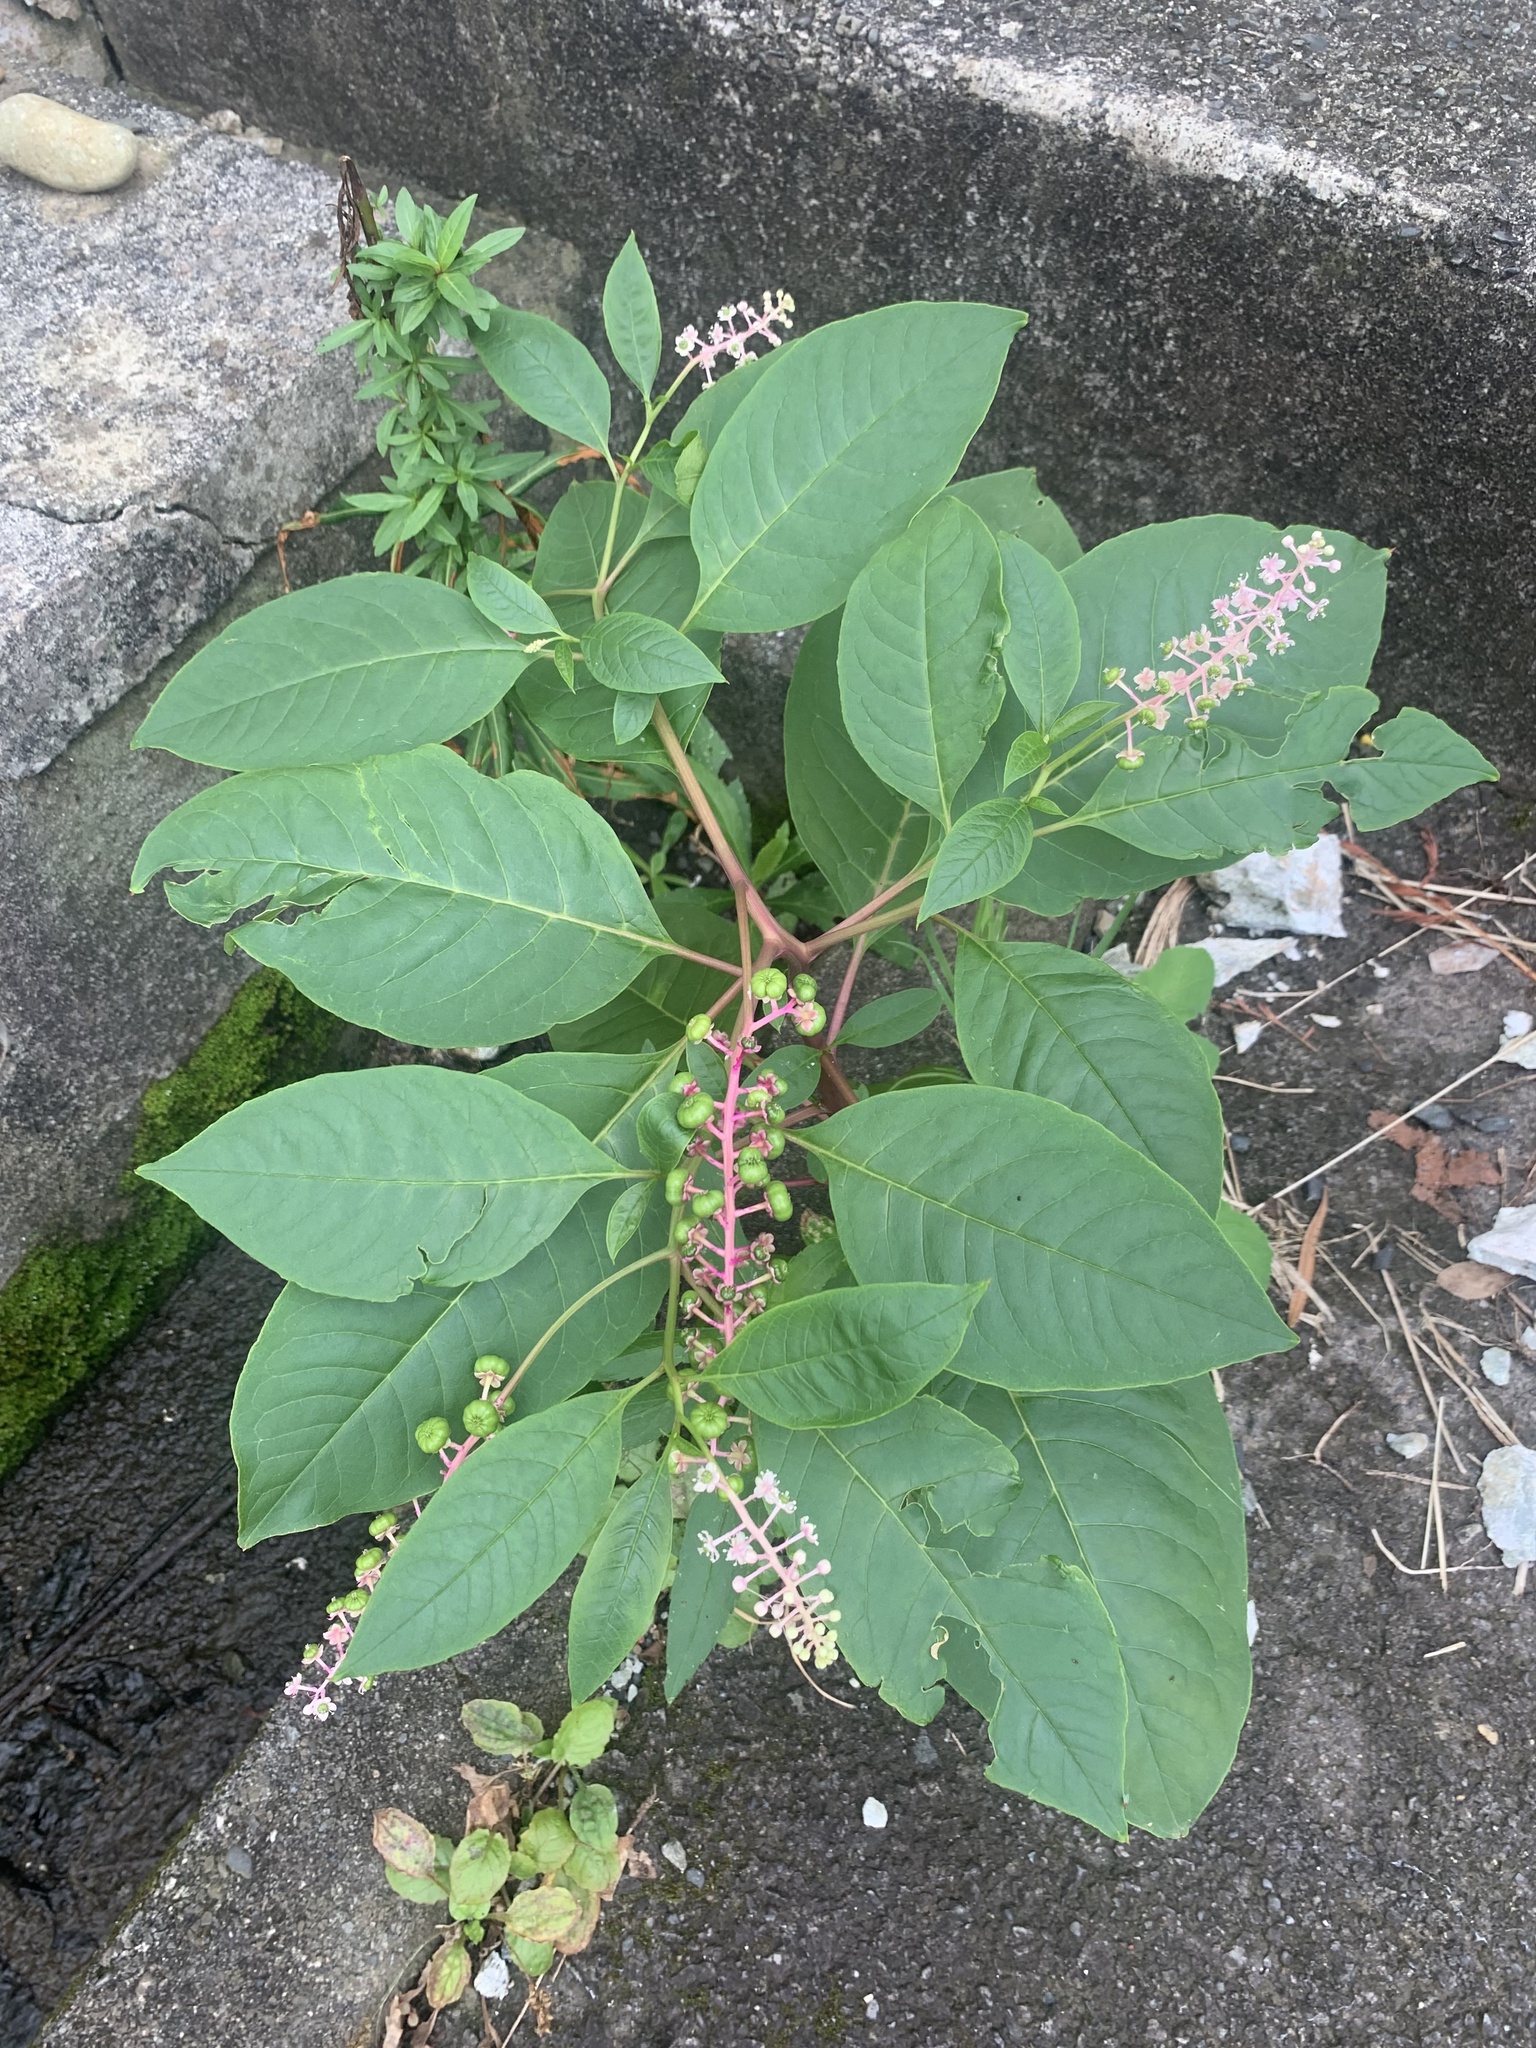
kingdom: Plantae
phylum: Tracheophyta
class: Magnoliopsida
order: Caryophyllales
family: Phytolaccaceae
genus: Phytolacca
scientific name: Phytolacca americana
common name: American pokeweed
